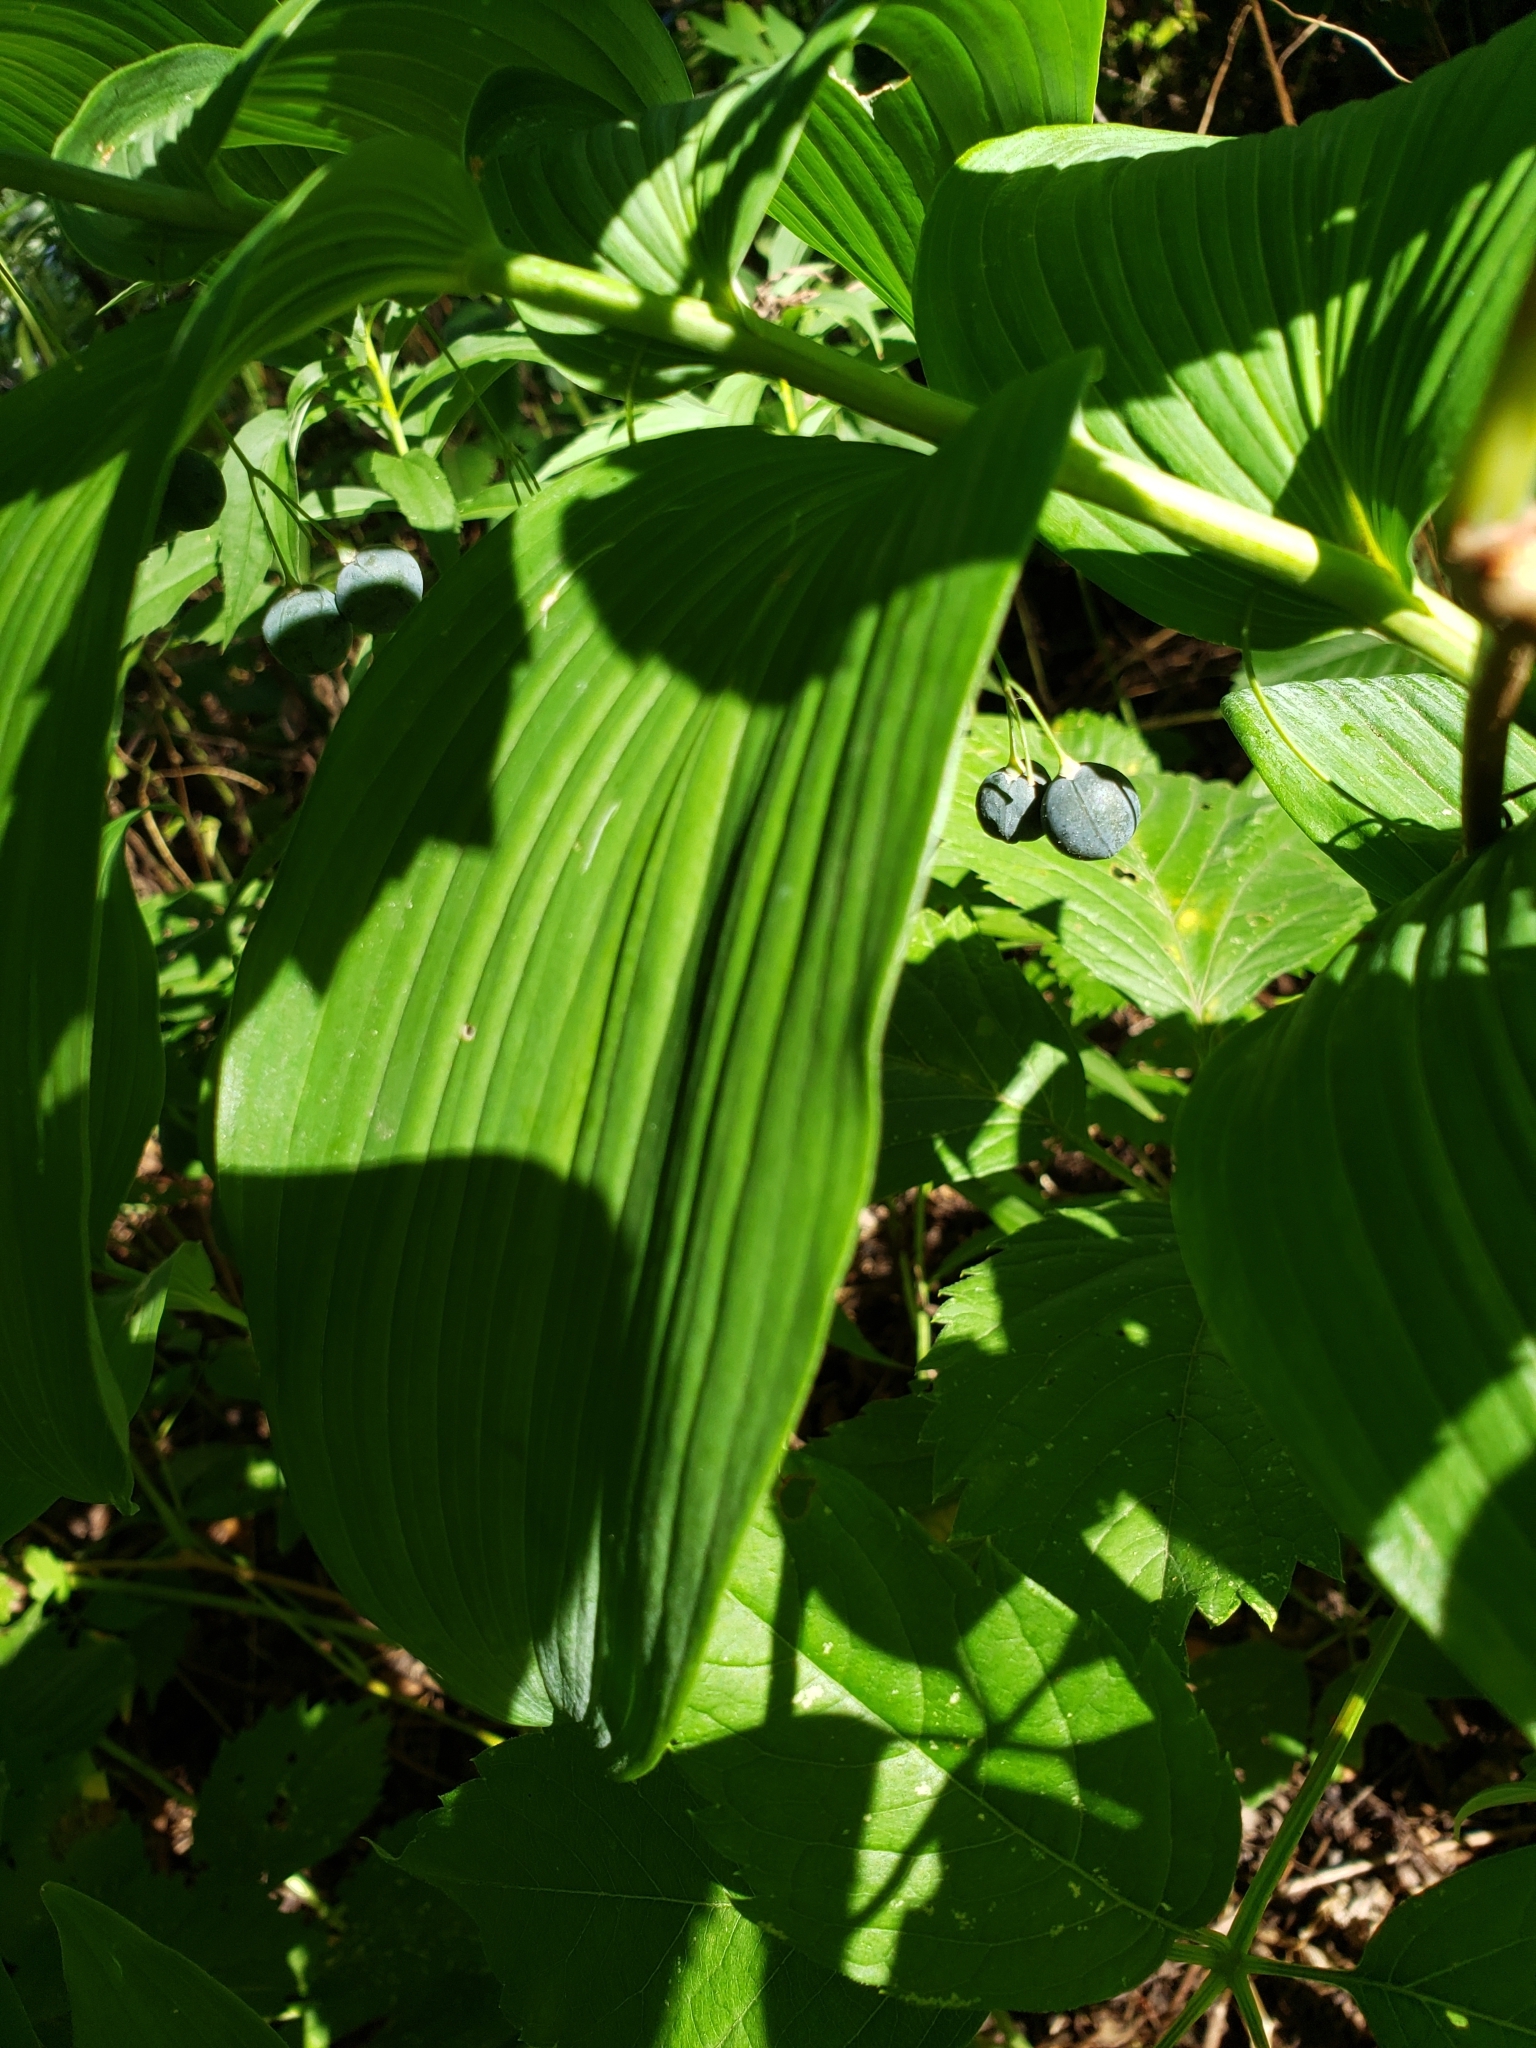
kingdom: Plantae
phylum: Tracheophyta
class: Liliopsida
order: Asparagales
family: Asparagaceae
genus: Polygonatum
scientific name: Polygonatum biflorum
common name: American solomon's-seal
